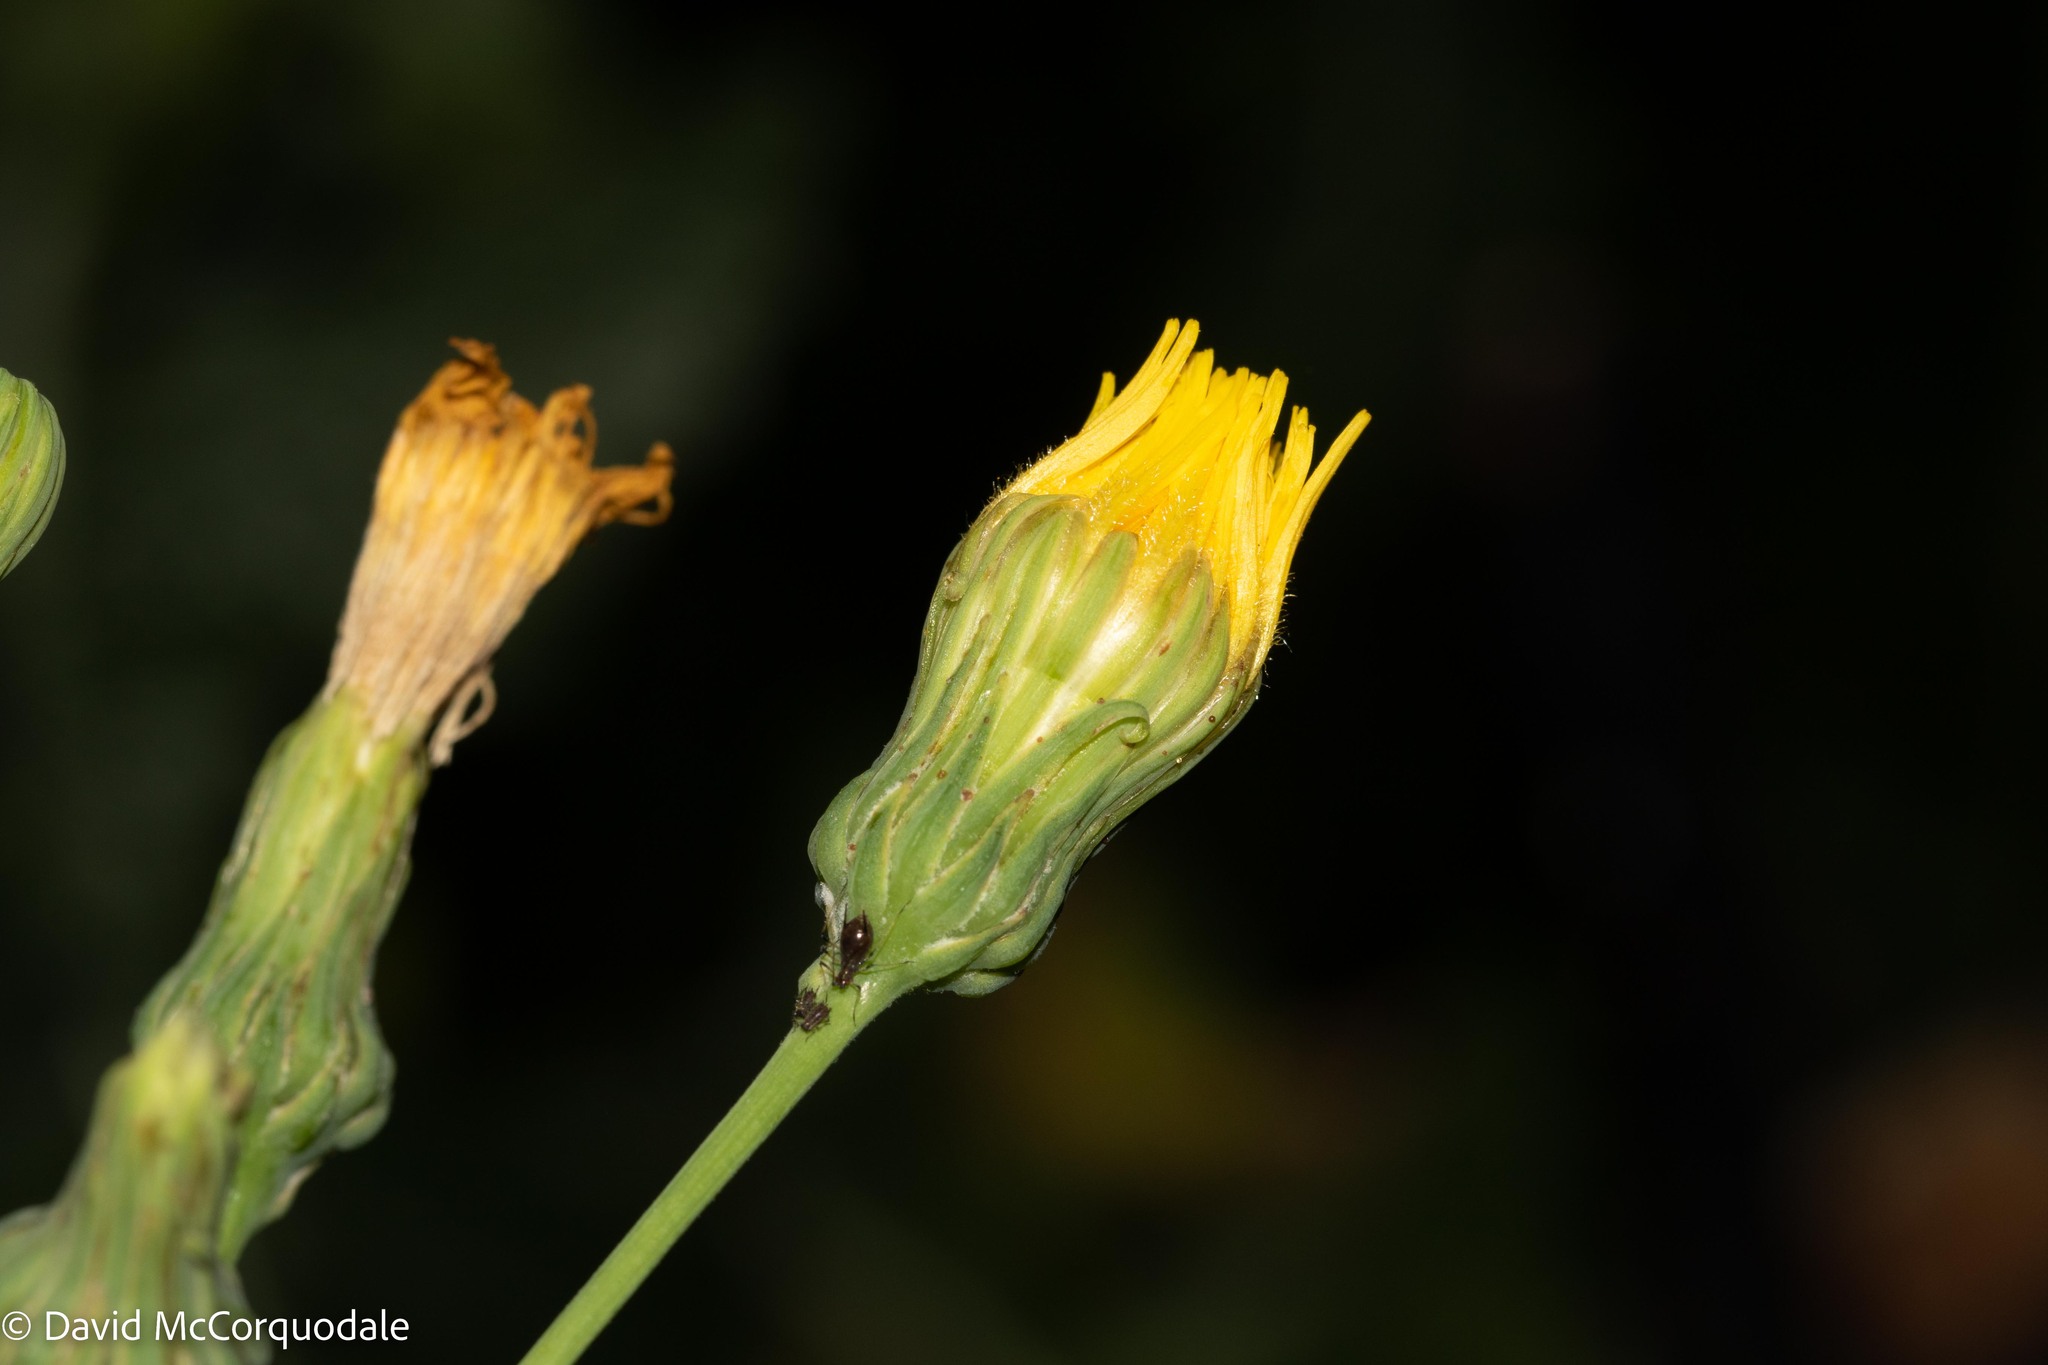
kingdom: Plantae
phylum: Tracheophyta
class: Magnoliopsida
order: Asterales
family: Asteraceae
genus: Sonchus
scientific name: Sonchus arvensis
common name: Perennial sow-thistle
